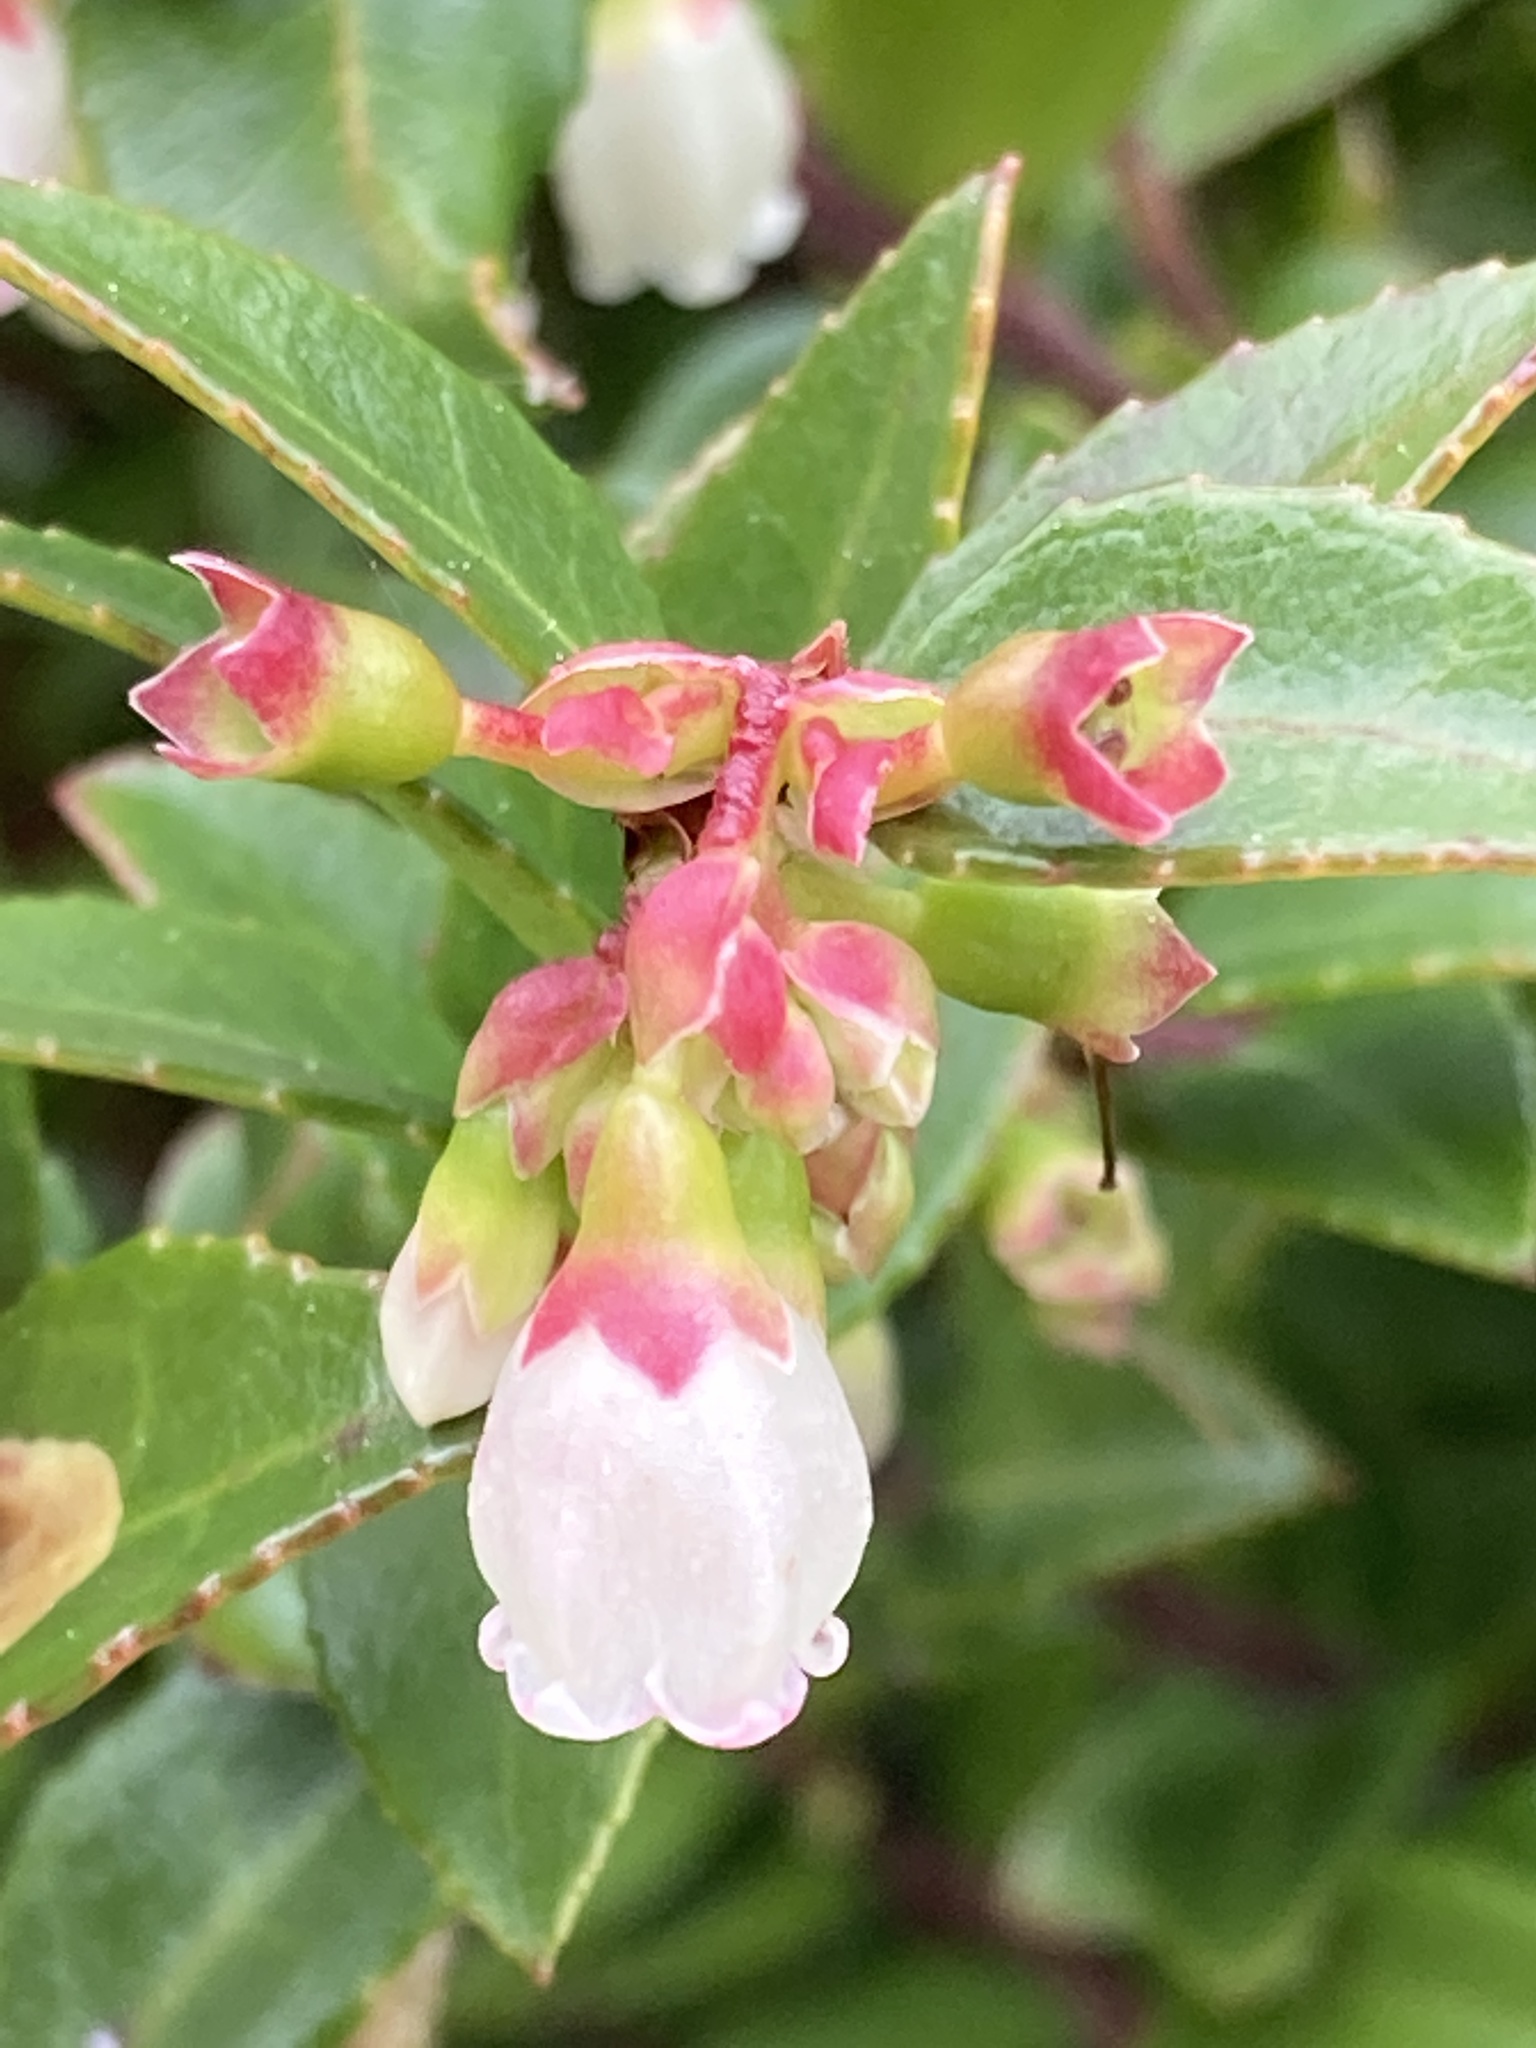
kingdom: Plantae
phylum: Tracheophyta
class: Magnoliopsida
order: Ericales
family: Ericaceae
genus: Vaccinium
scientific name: Vaccinium ovatum
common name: California-huckleberry
